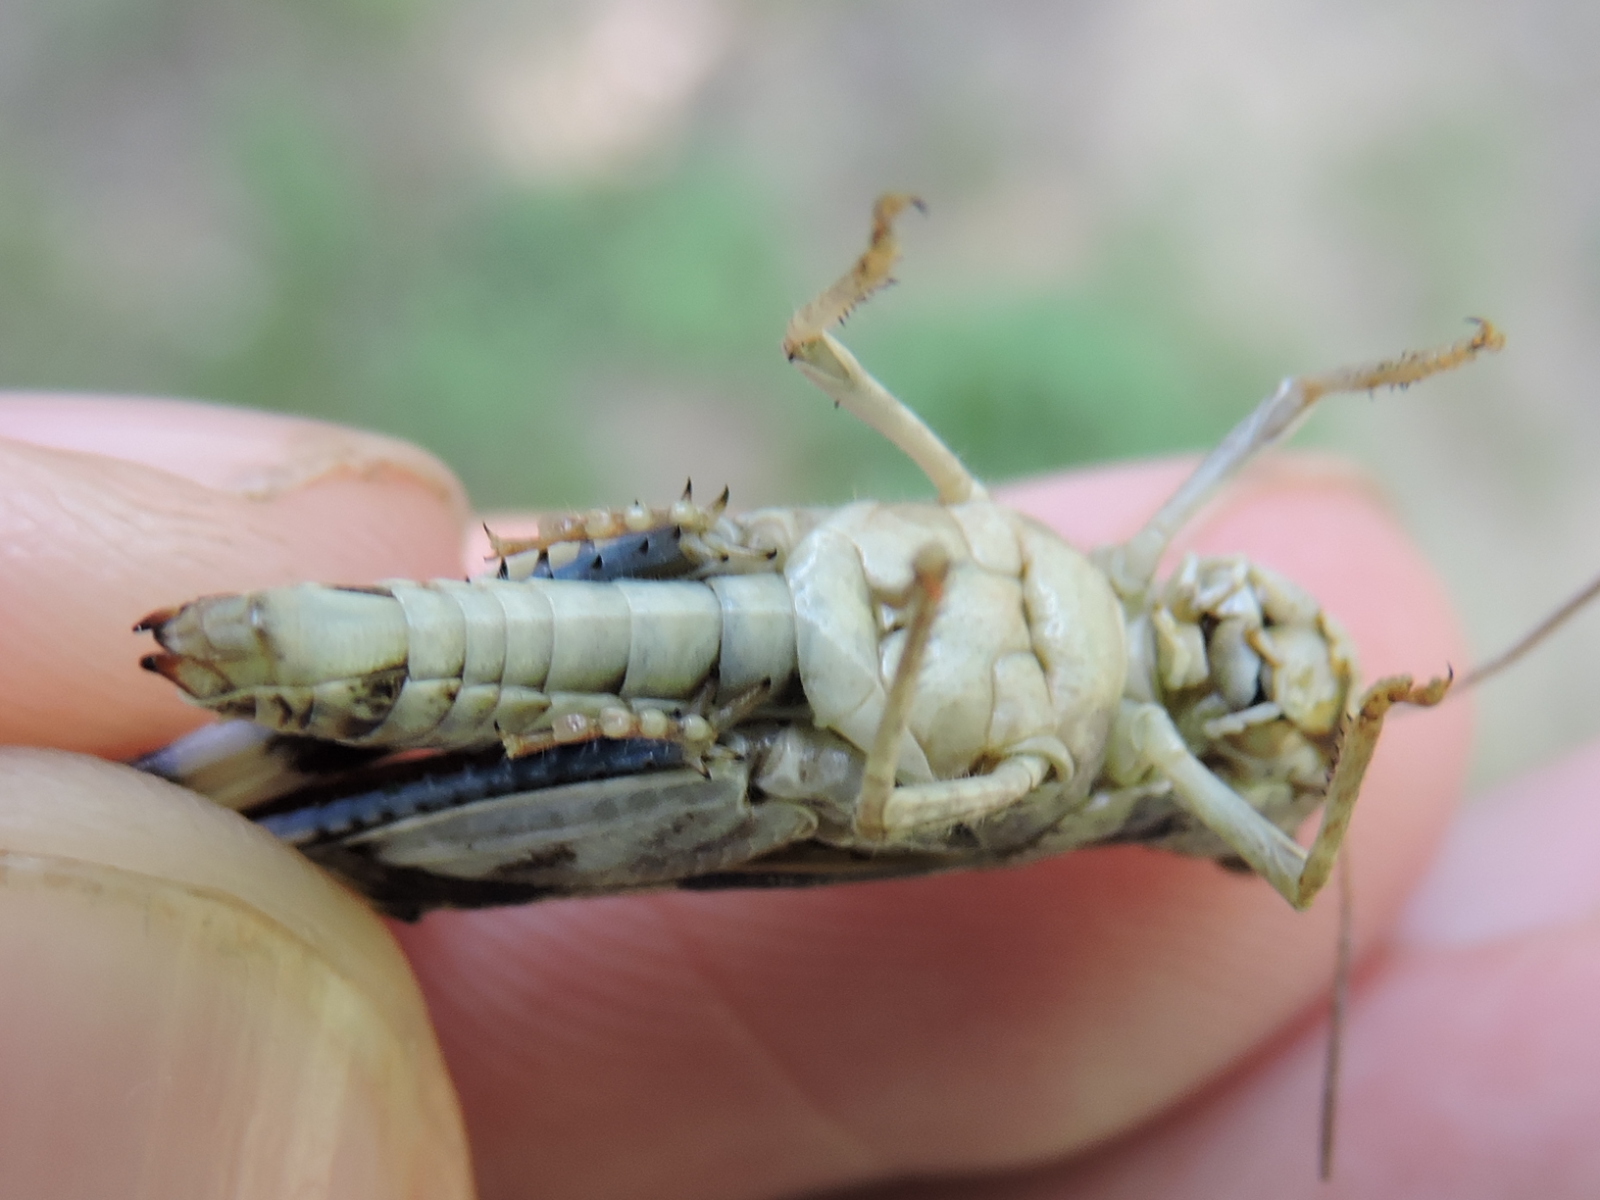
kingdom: Animalia
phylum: Arthropoda
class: Insecta
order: Orthoptera
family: Acrididae
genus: Encoptolophus
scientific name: Encoptolophus costalis
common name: Dusky grasshopper
